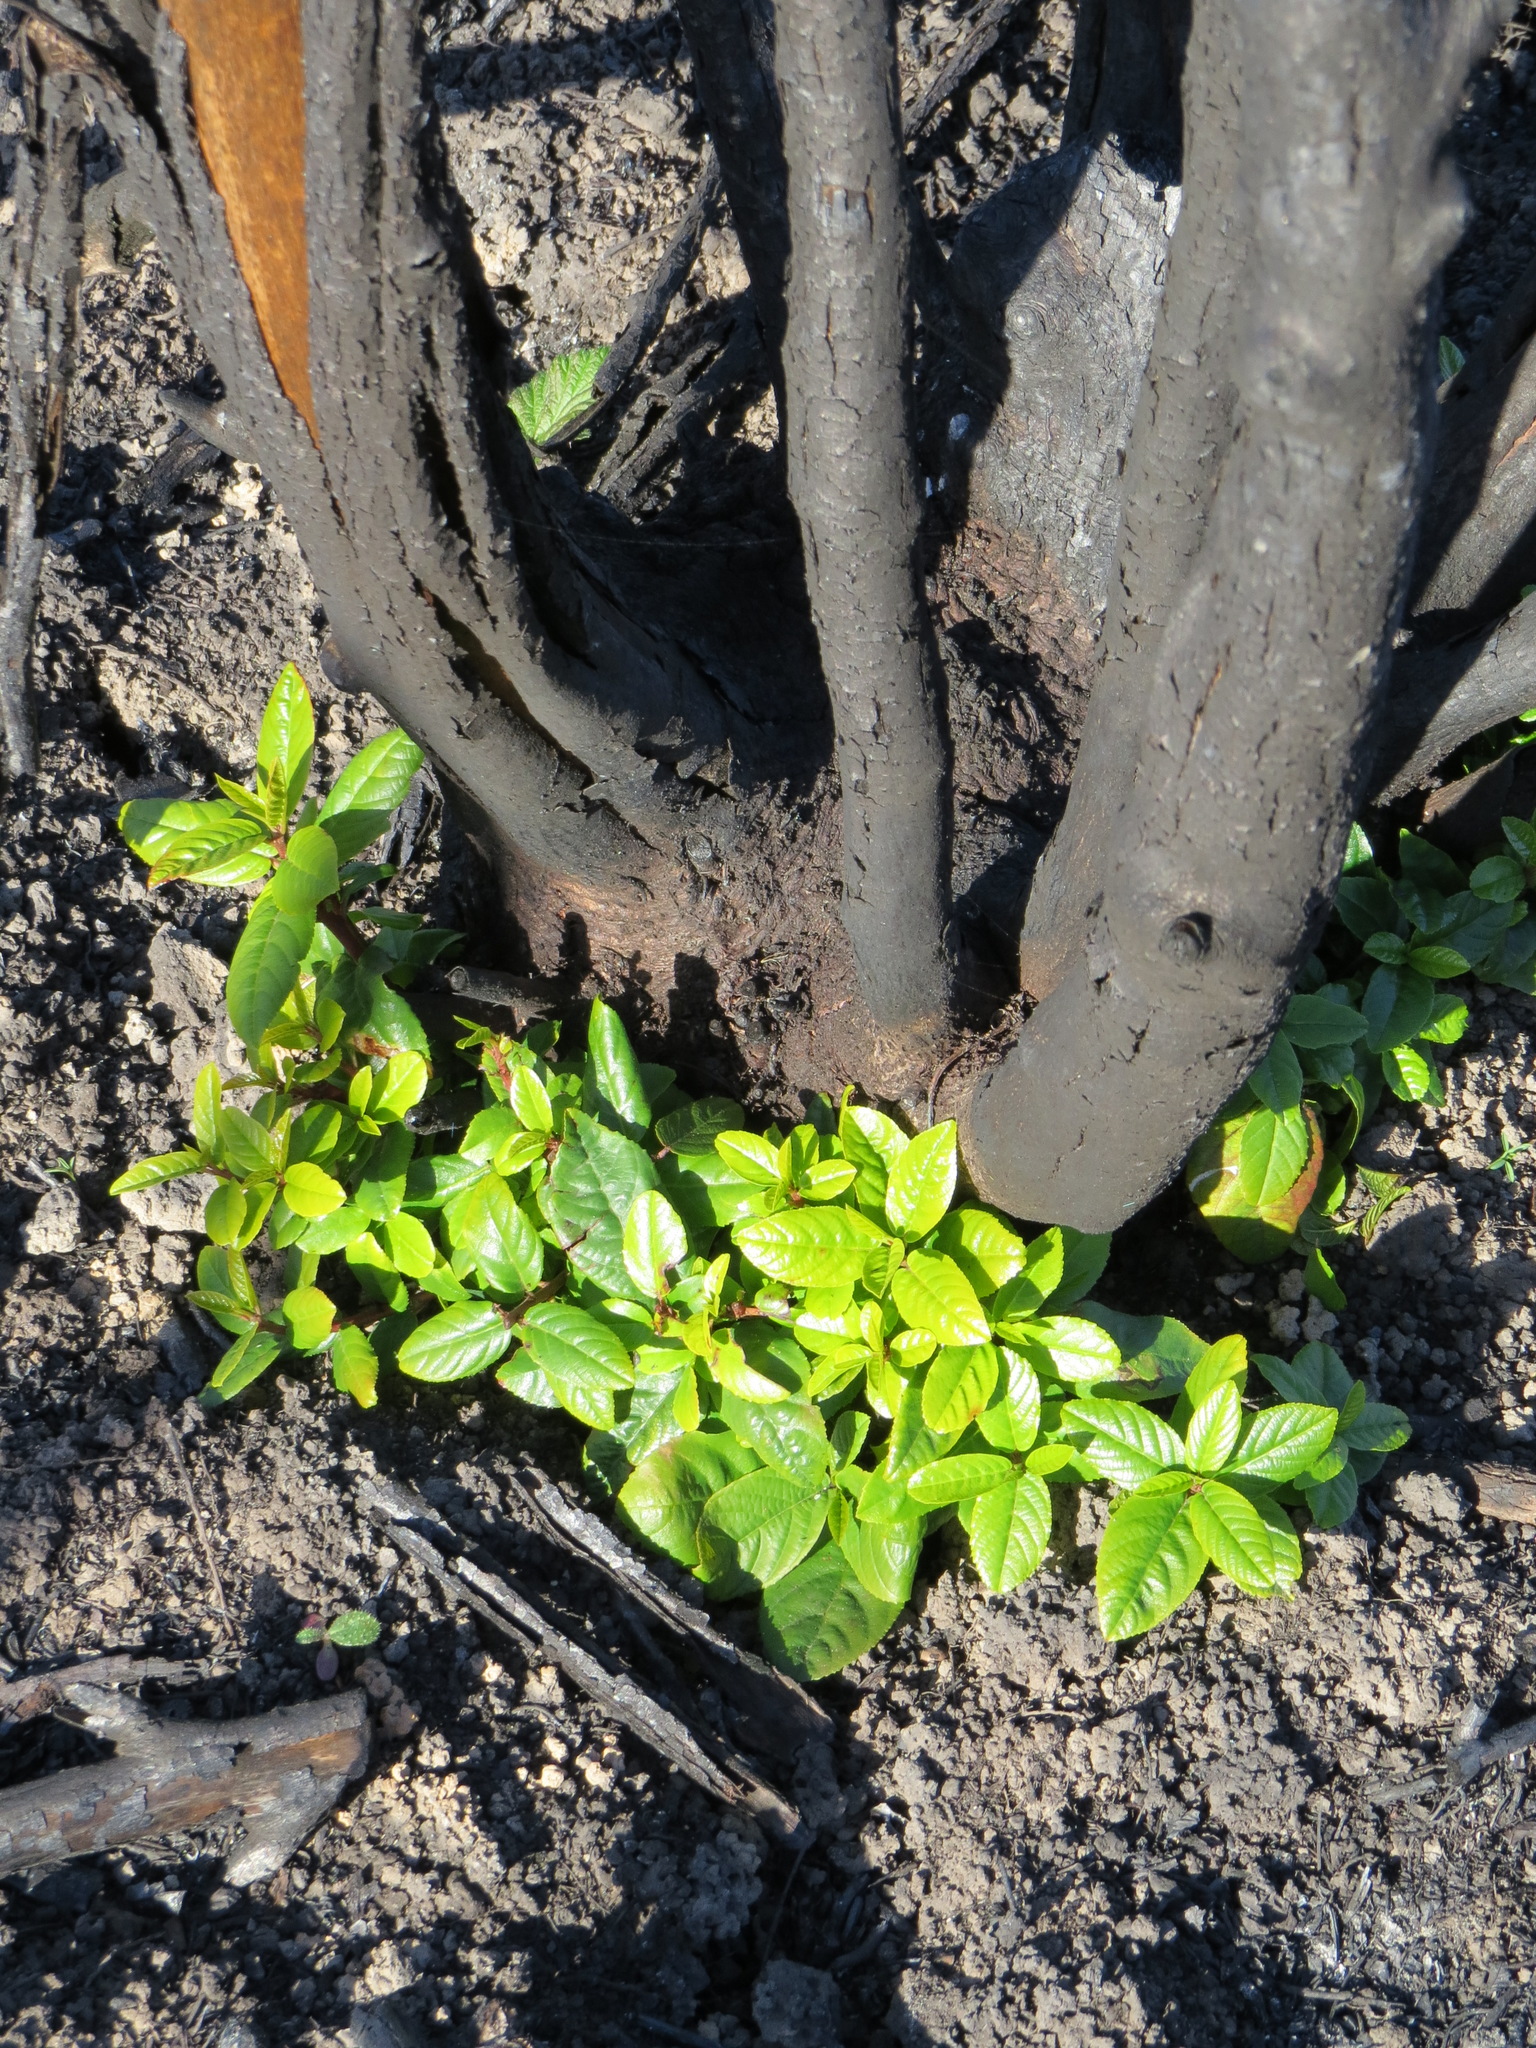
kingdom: Plantae
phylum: Tracheophyta
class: Magnoliopsida
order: Rosales
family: Rhamnaceae
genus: Frangula
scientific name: Frangula californica
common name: California buckthorn
